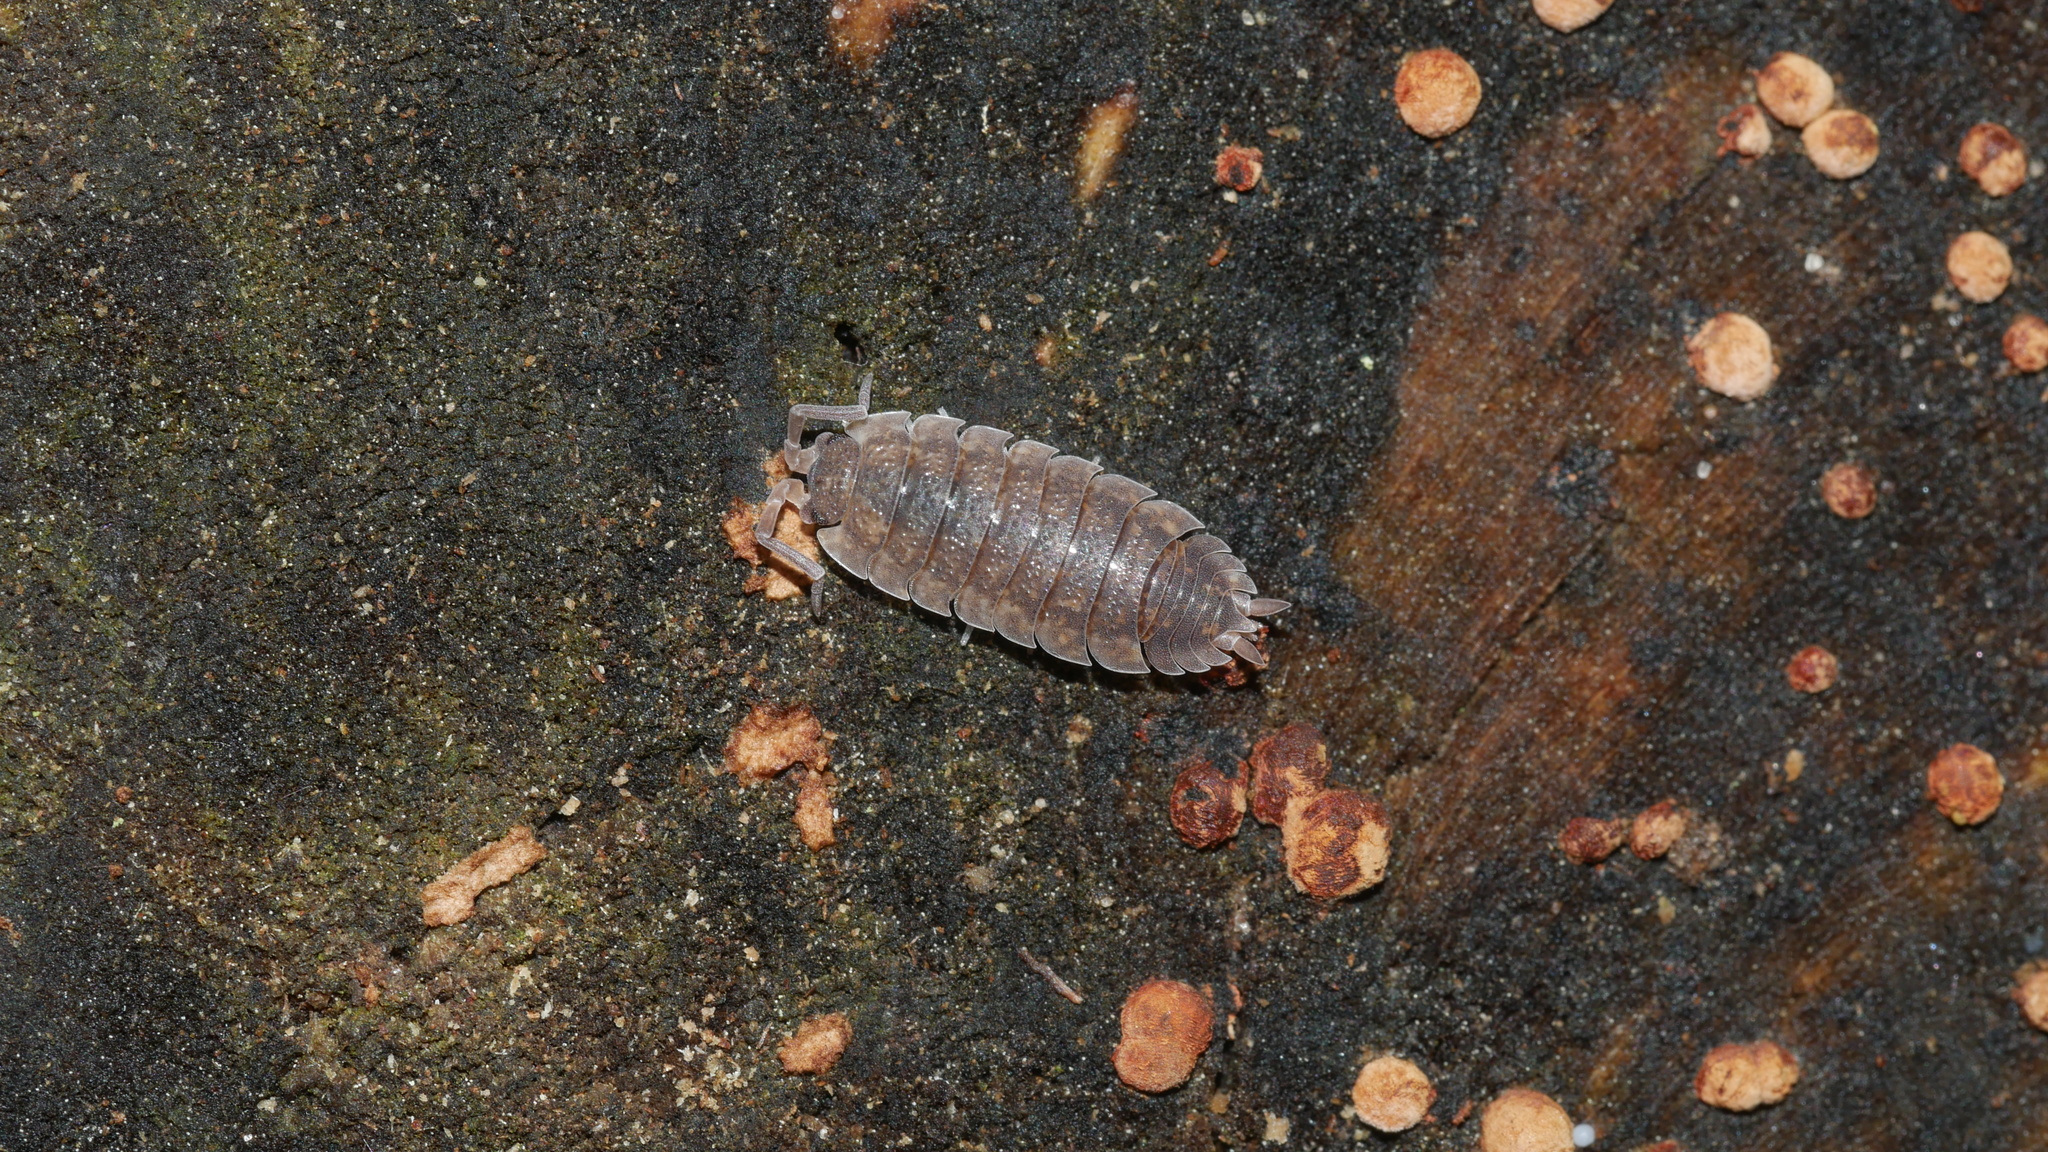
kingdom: Animalia
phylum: Arthropoda
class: Malacostraca
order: Isopoda
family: Porcellionidae
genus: Porcellio
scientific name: Porcellio scaber
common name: Common rough woodlouse
